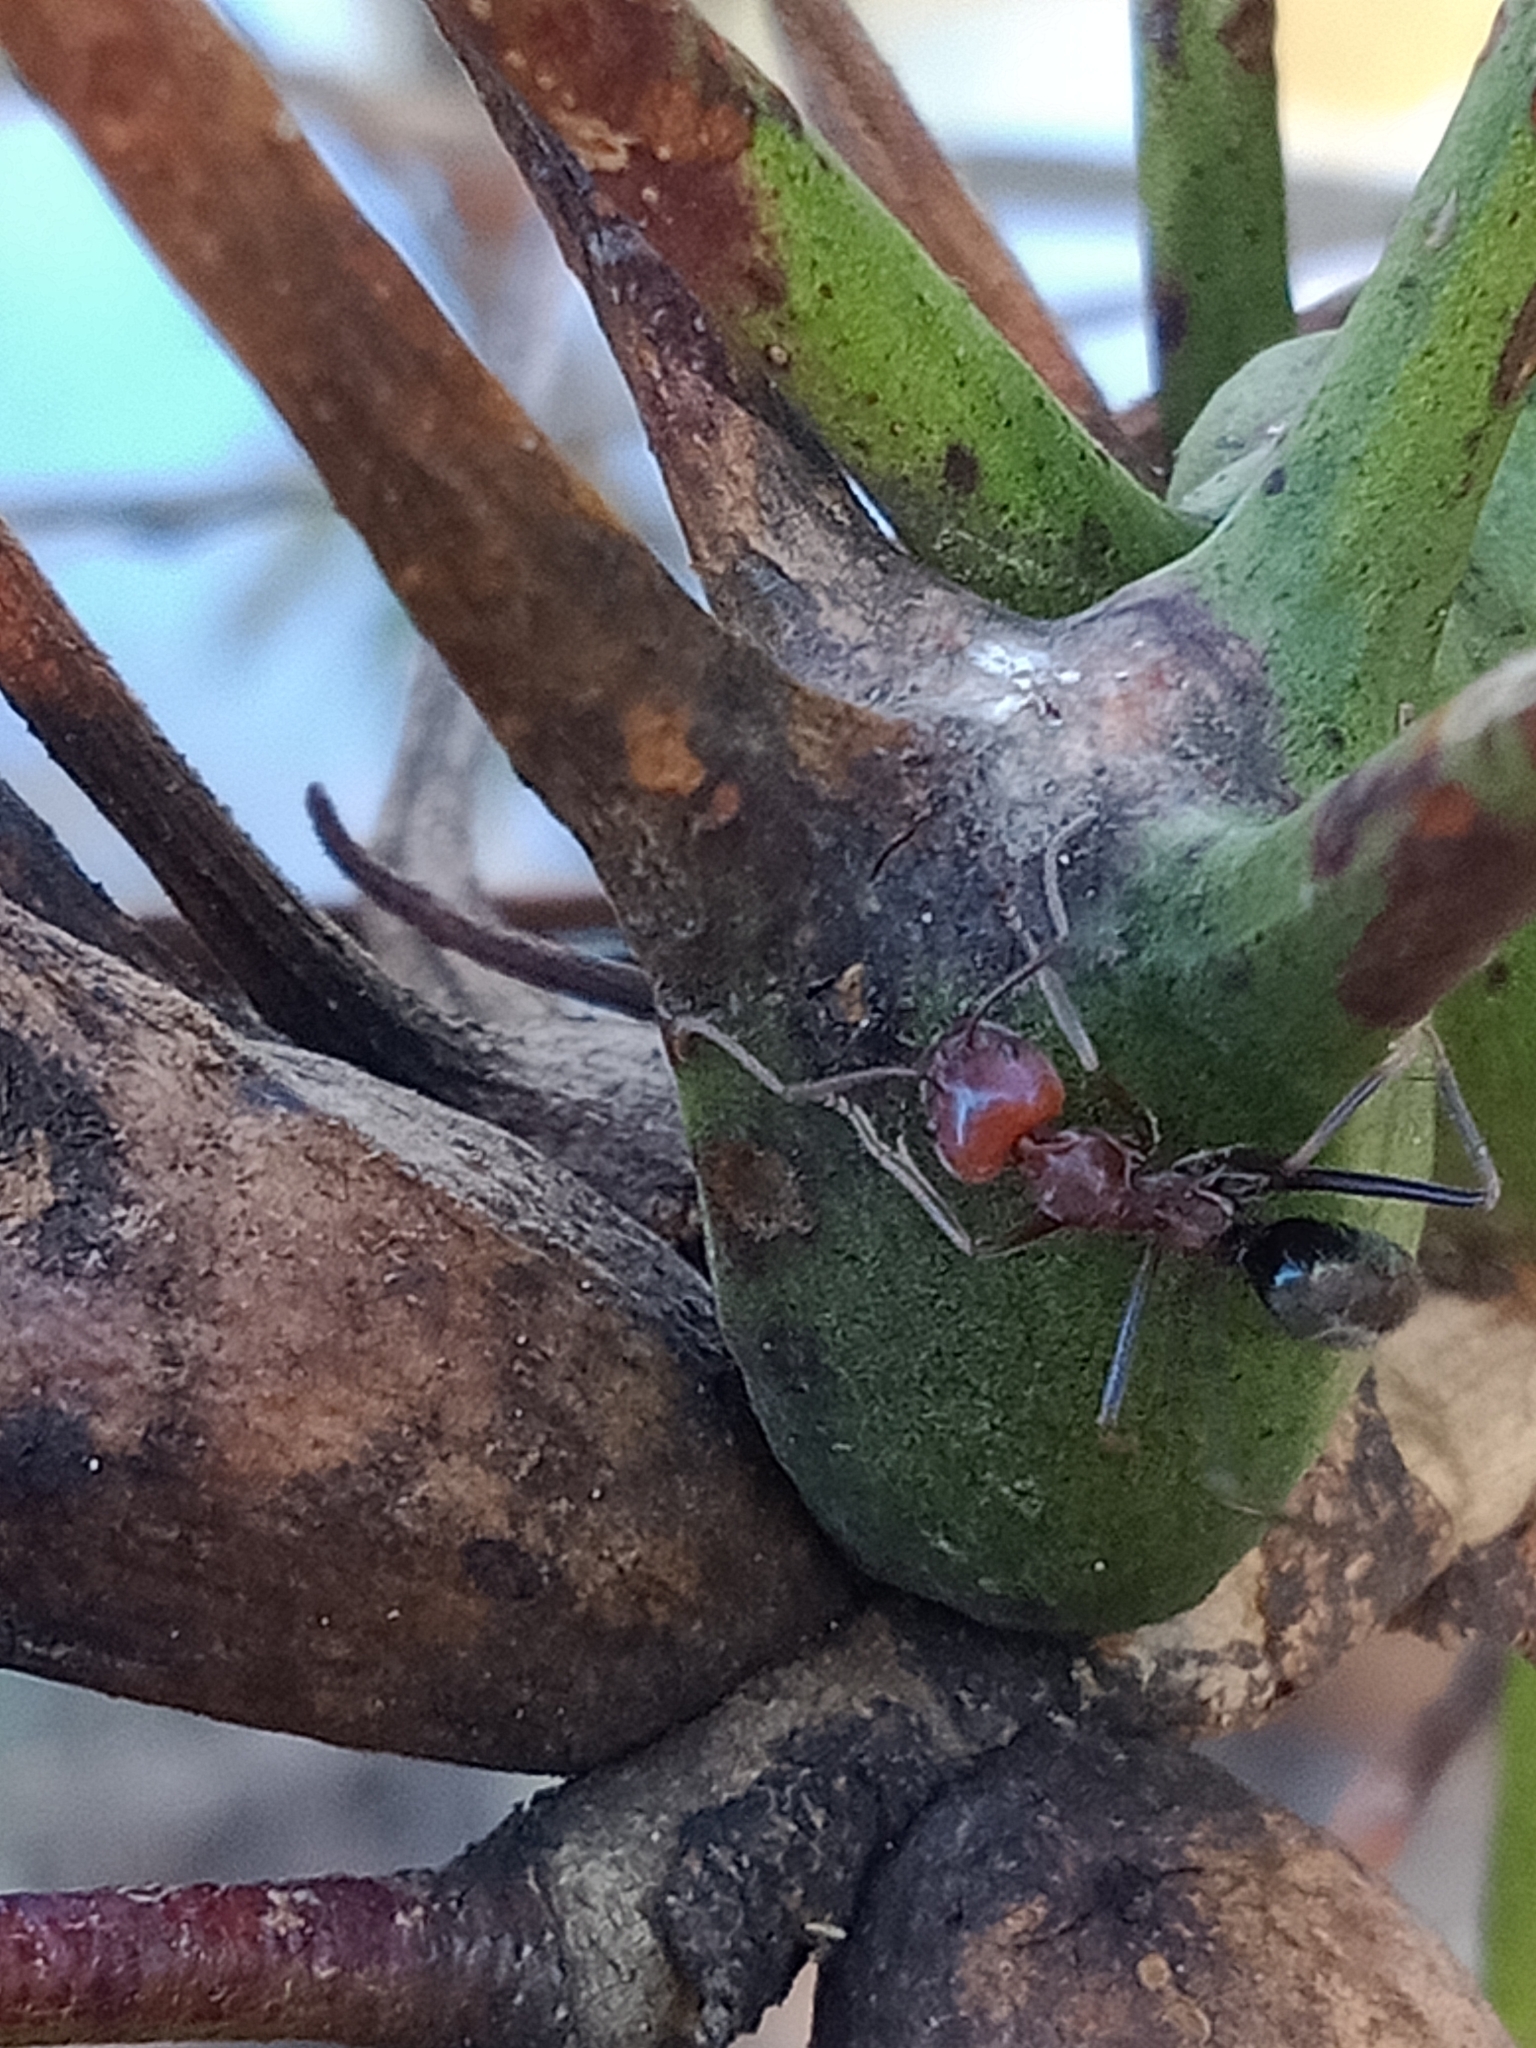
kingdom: Animalia
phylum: Arthropoda
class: Insecta
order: Hymenoptera
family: Formicidae
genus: Iridomyrmex
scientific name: Iridomyrmex purpureus
